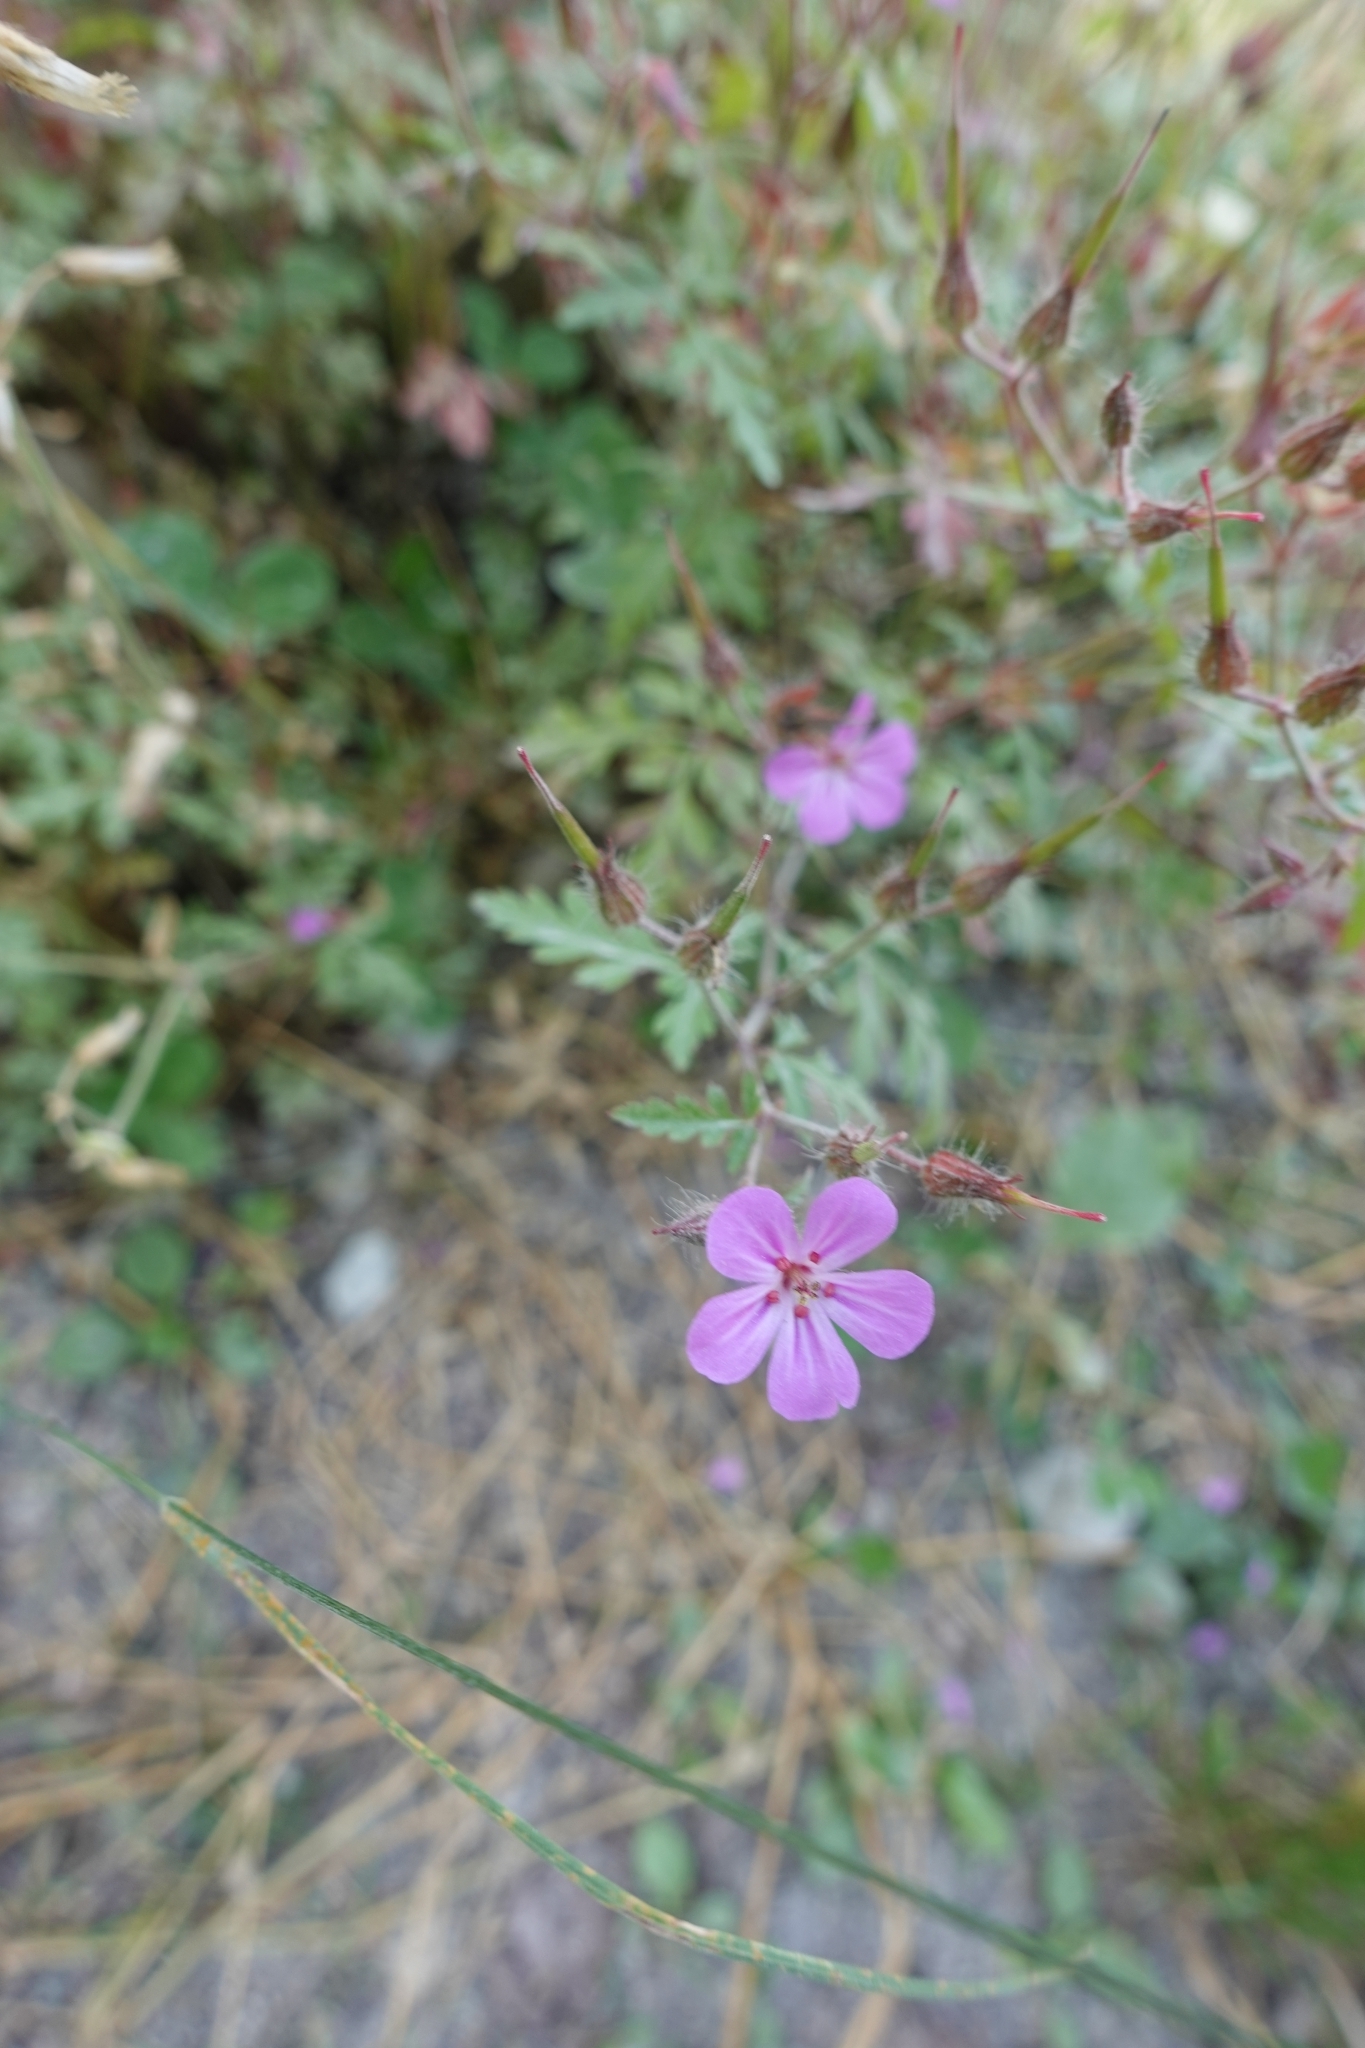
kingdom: Plantae
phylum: Tracheophyta
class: Magnoliopsida
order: Geraniales
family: Geraniaceae
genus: Geranium
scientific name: Geranium robertianum
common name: Herb-robert
